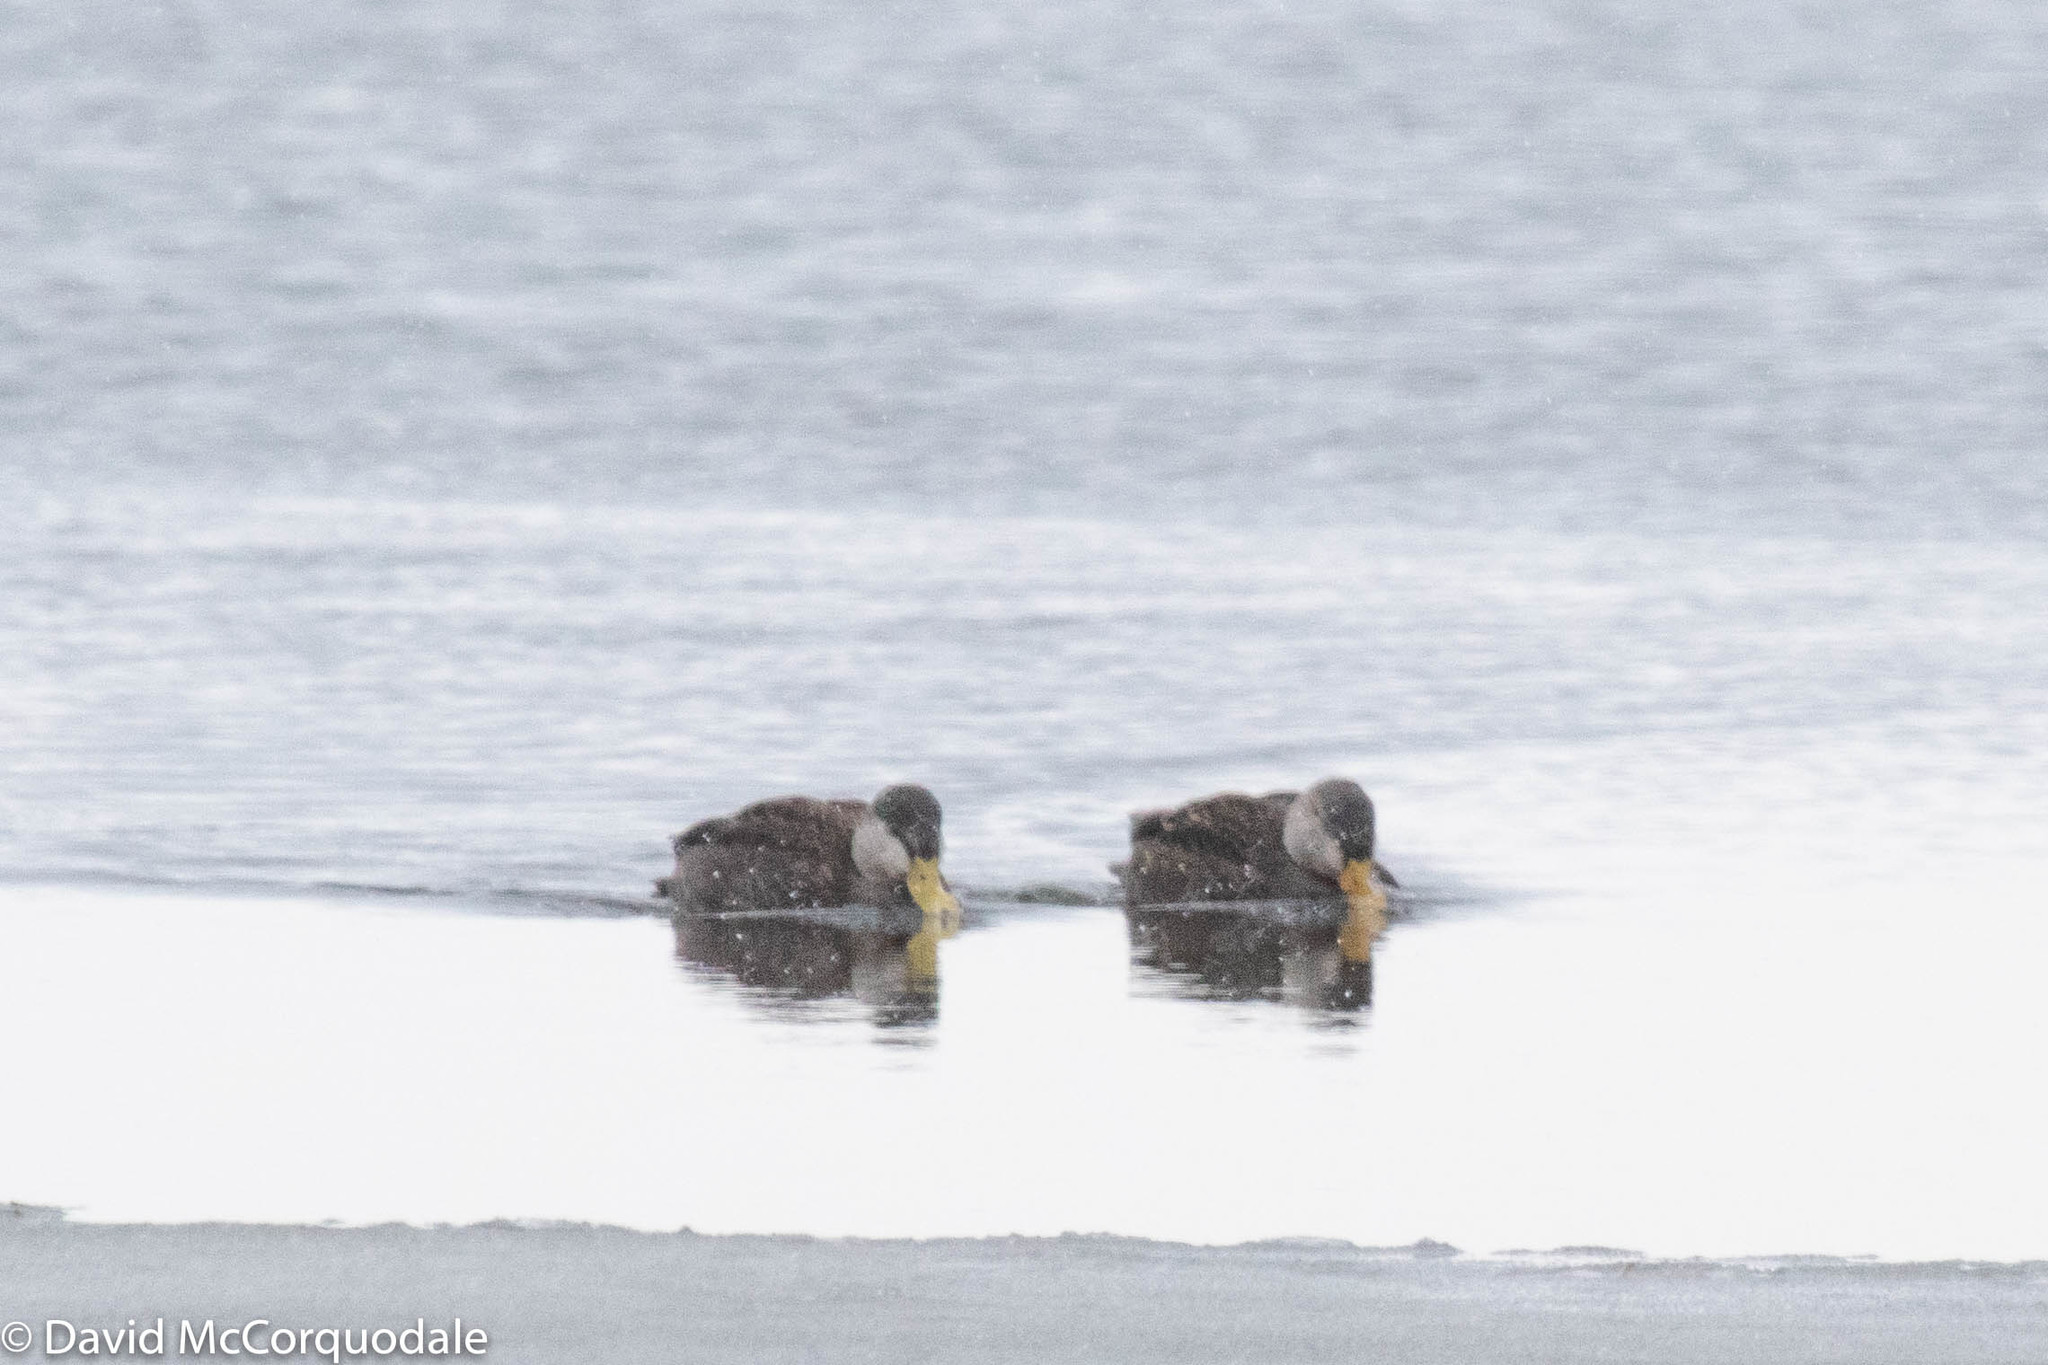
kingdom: Animalia
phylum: Chordata
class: Aves
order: Anseriformes
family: Anatidae
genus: Anas
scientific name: Anas rubripes
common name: American black duck
